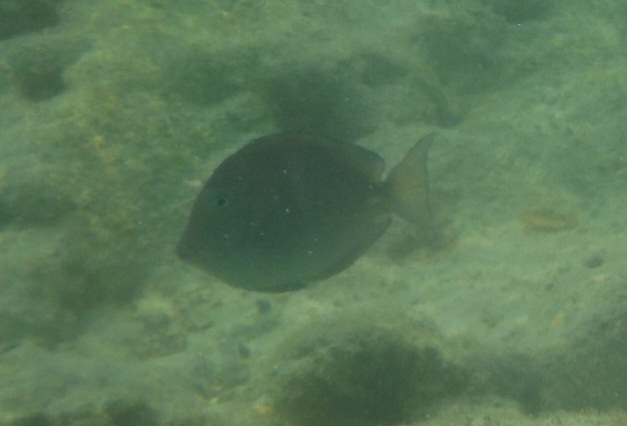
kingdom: Animalia
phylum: Chordata
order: Perciformes
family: Acanthuridae
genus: Acanthurus
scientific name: Acanthurus coeruleus
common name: Blue tang
